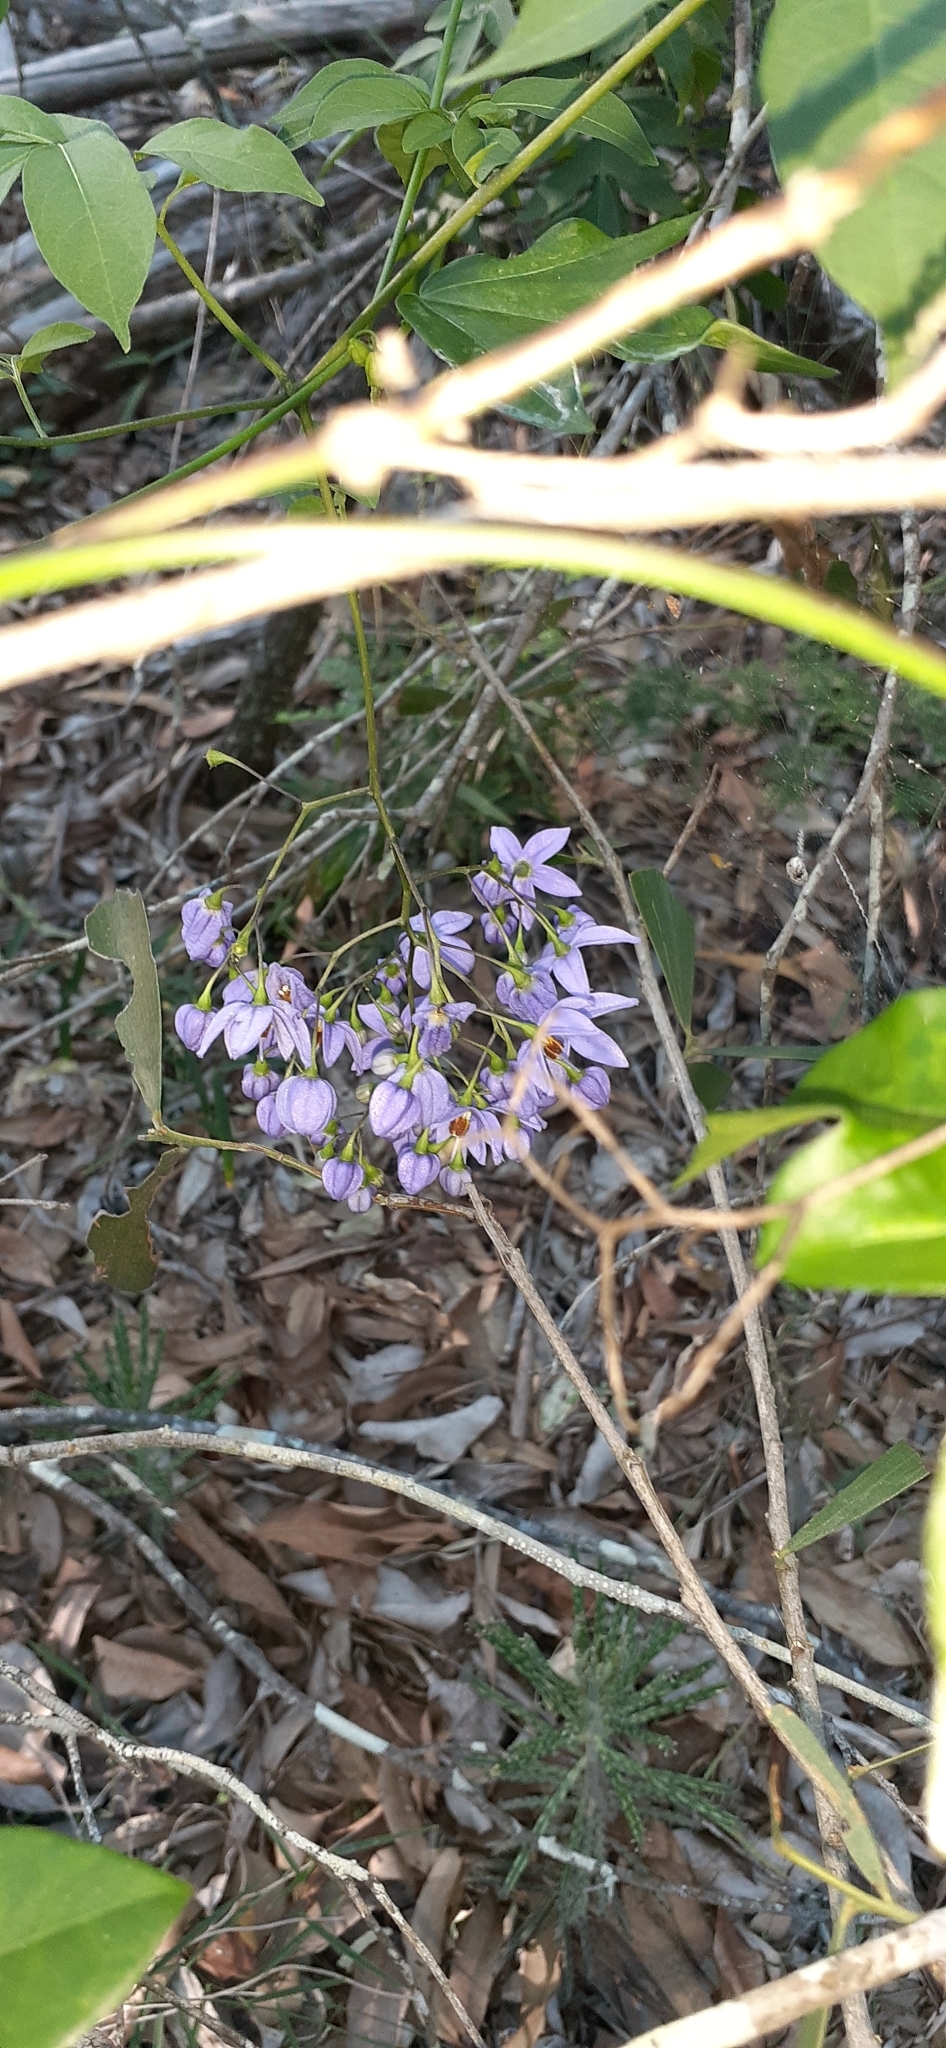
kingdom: Plantae
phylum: Tracheophyta
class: Magnoliopsida
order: Solanales
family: Solanaceae
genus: Solanum
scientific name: Solanum seaforthianum
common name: Brazilian nightshade
